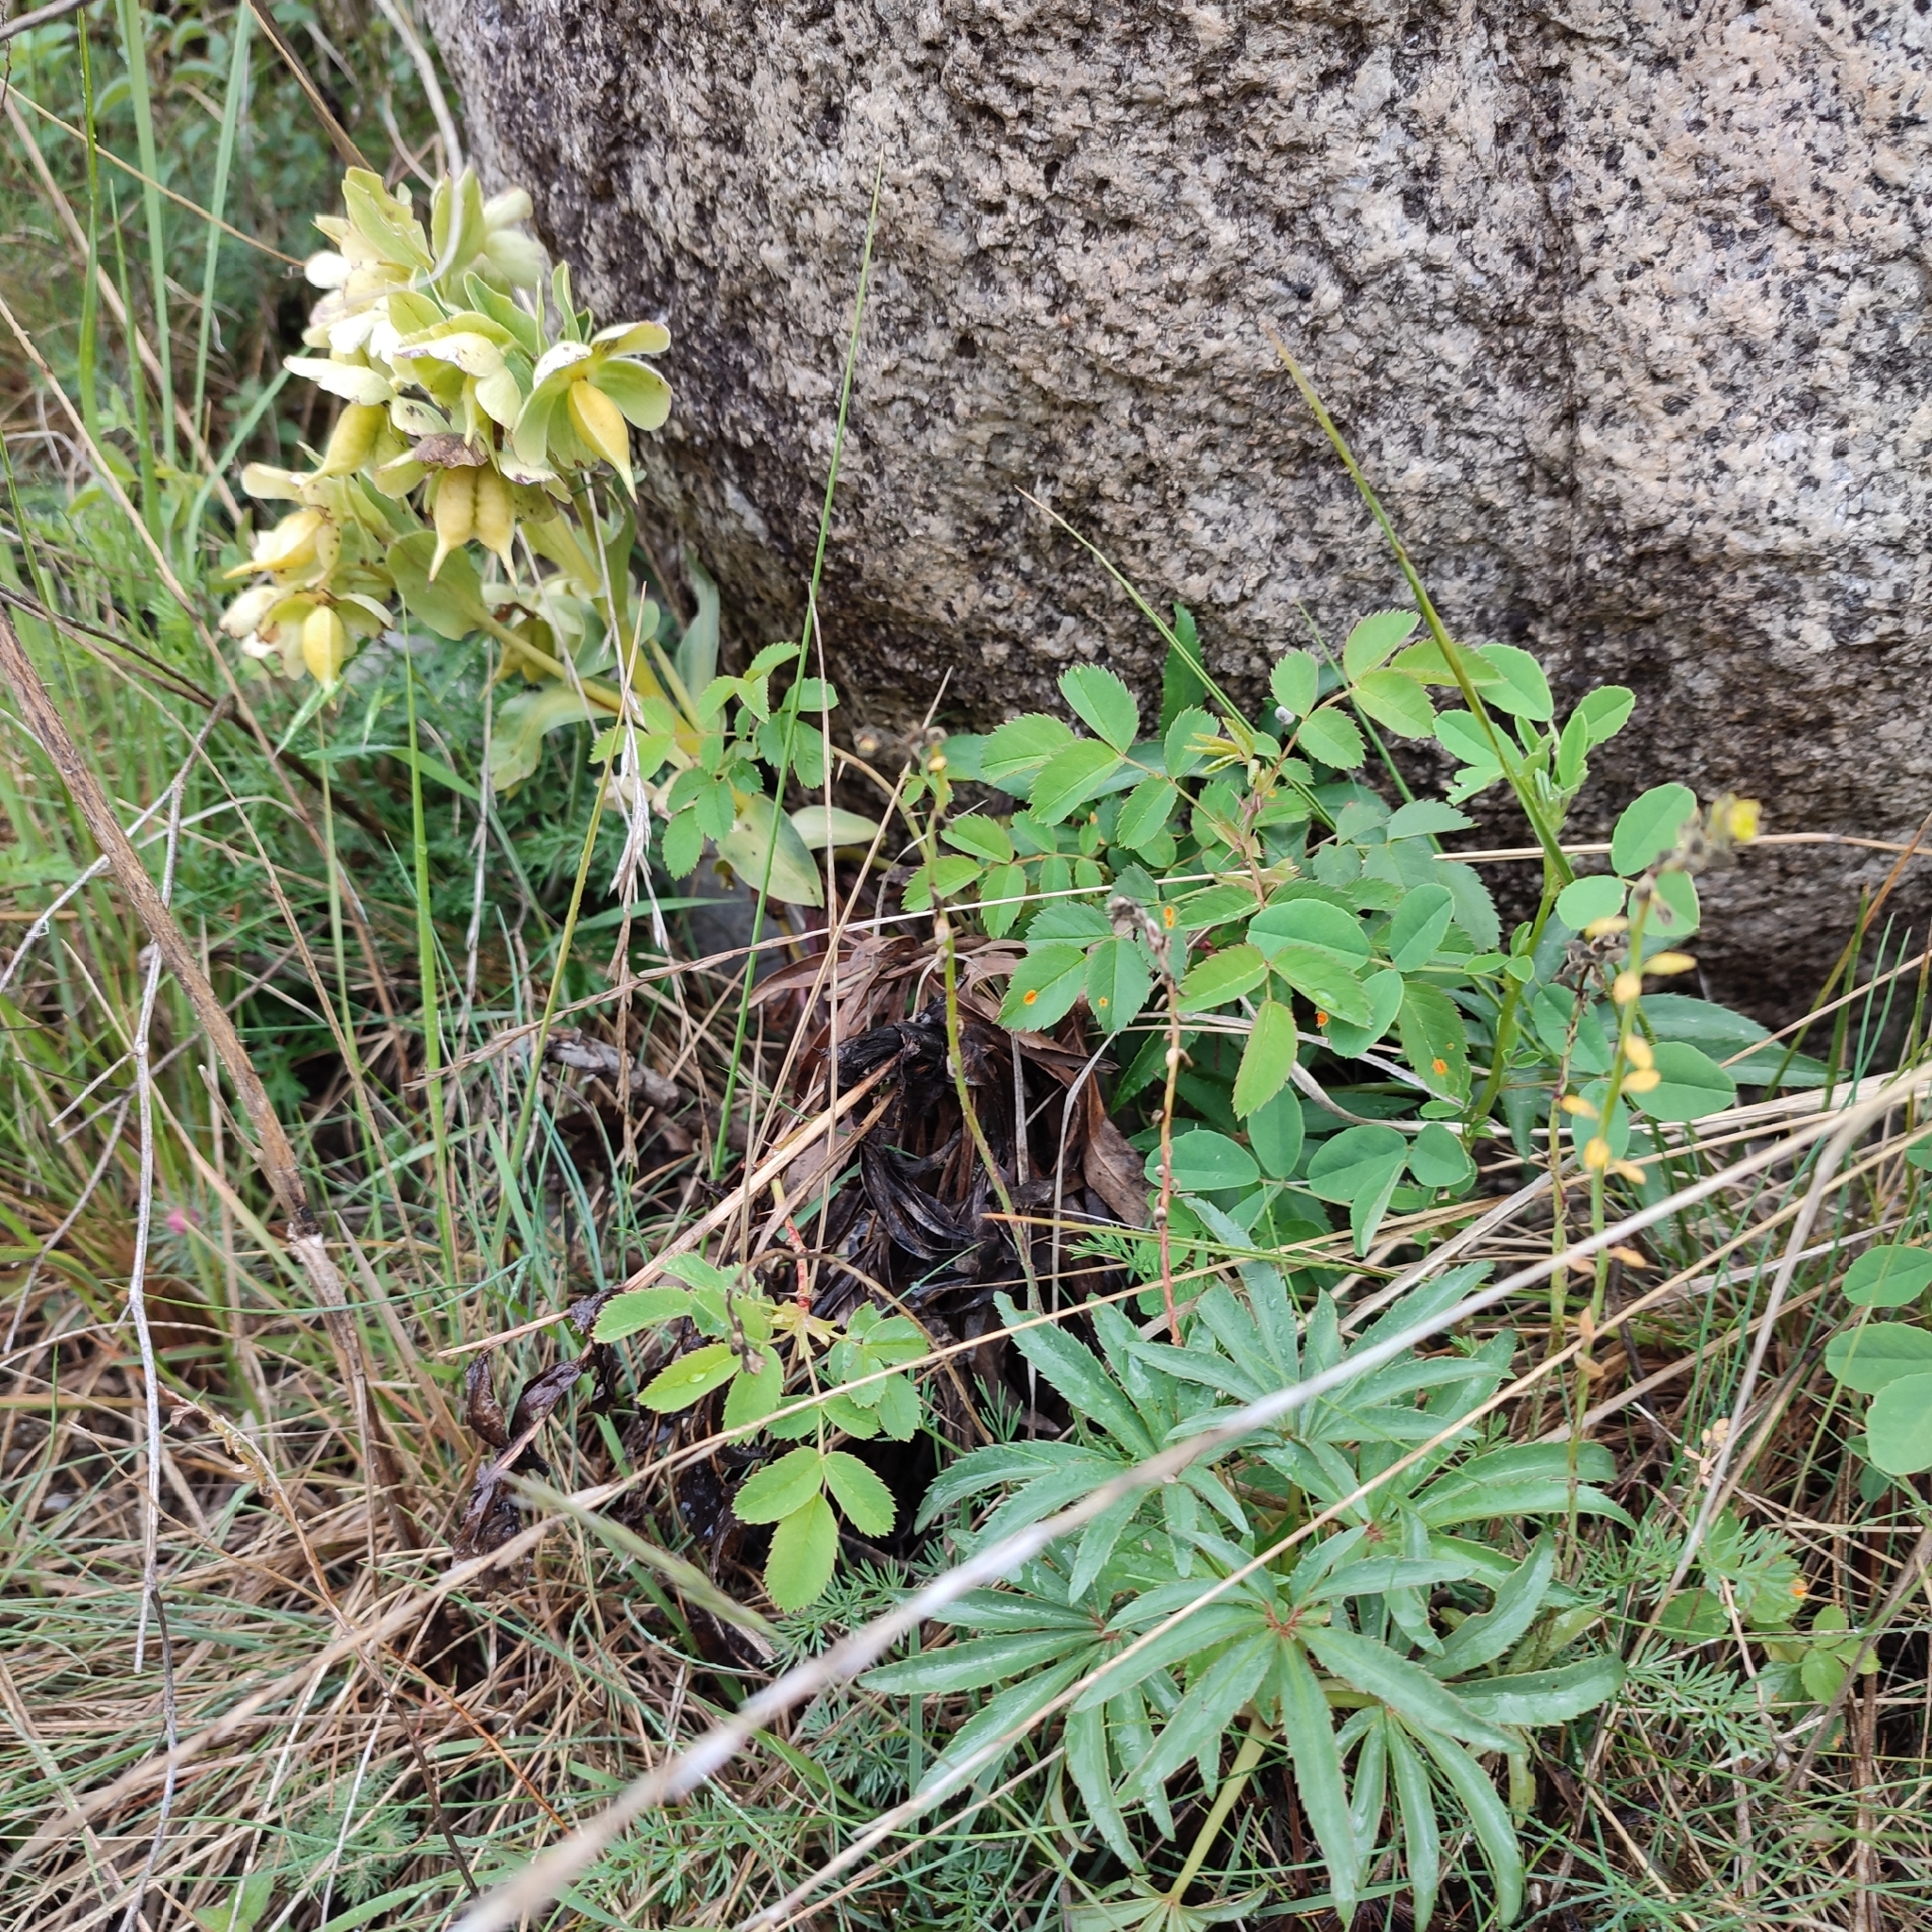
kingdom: Plantae
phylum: Tracheophyta
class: Magnoliopsida
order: Ranunculales
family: Ranunculaceae
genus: Helleborus
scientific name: Helleborus foetidus
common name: Stinking hellebore
